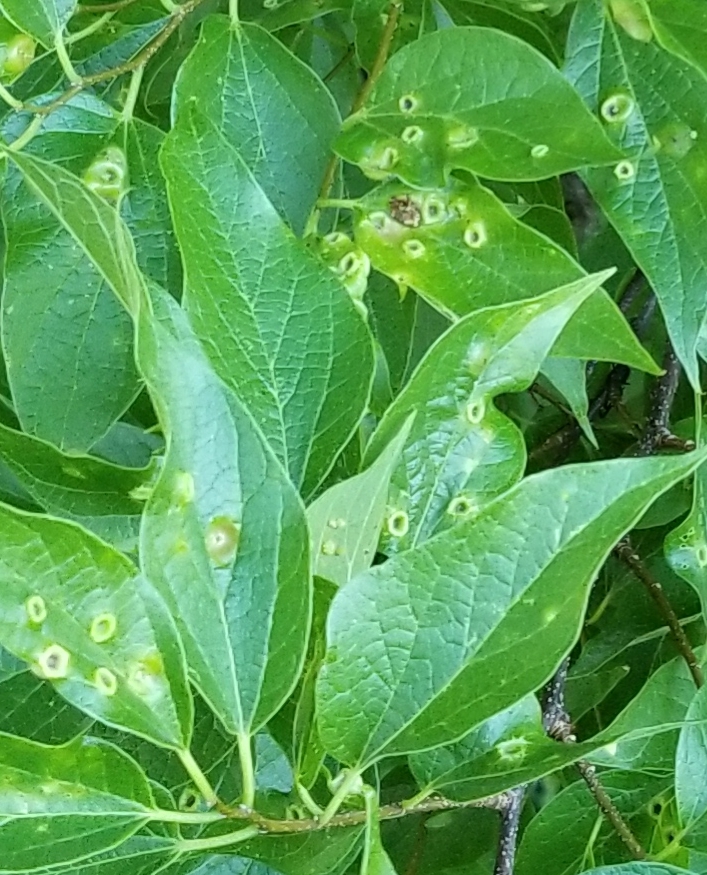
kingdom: Animalia
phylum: Arthropoda
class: Insecta
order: Hemiptera
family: Aphalaridae
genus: Pachypsylla
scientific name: Pachypsylla celtidismamma
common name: Hackberry nipplegall psyllid
